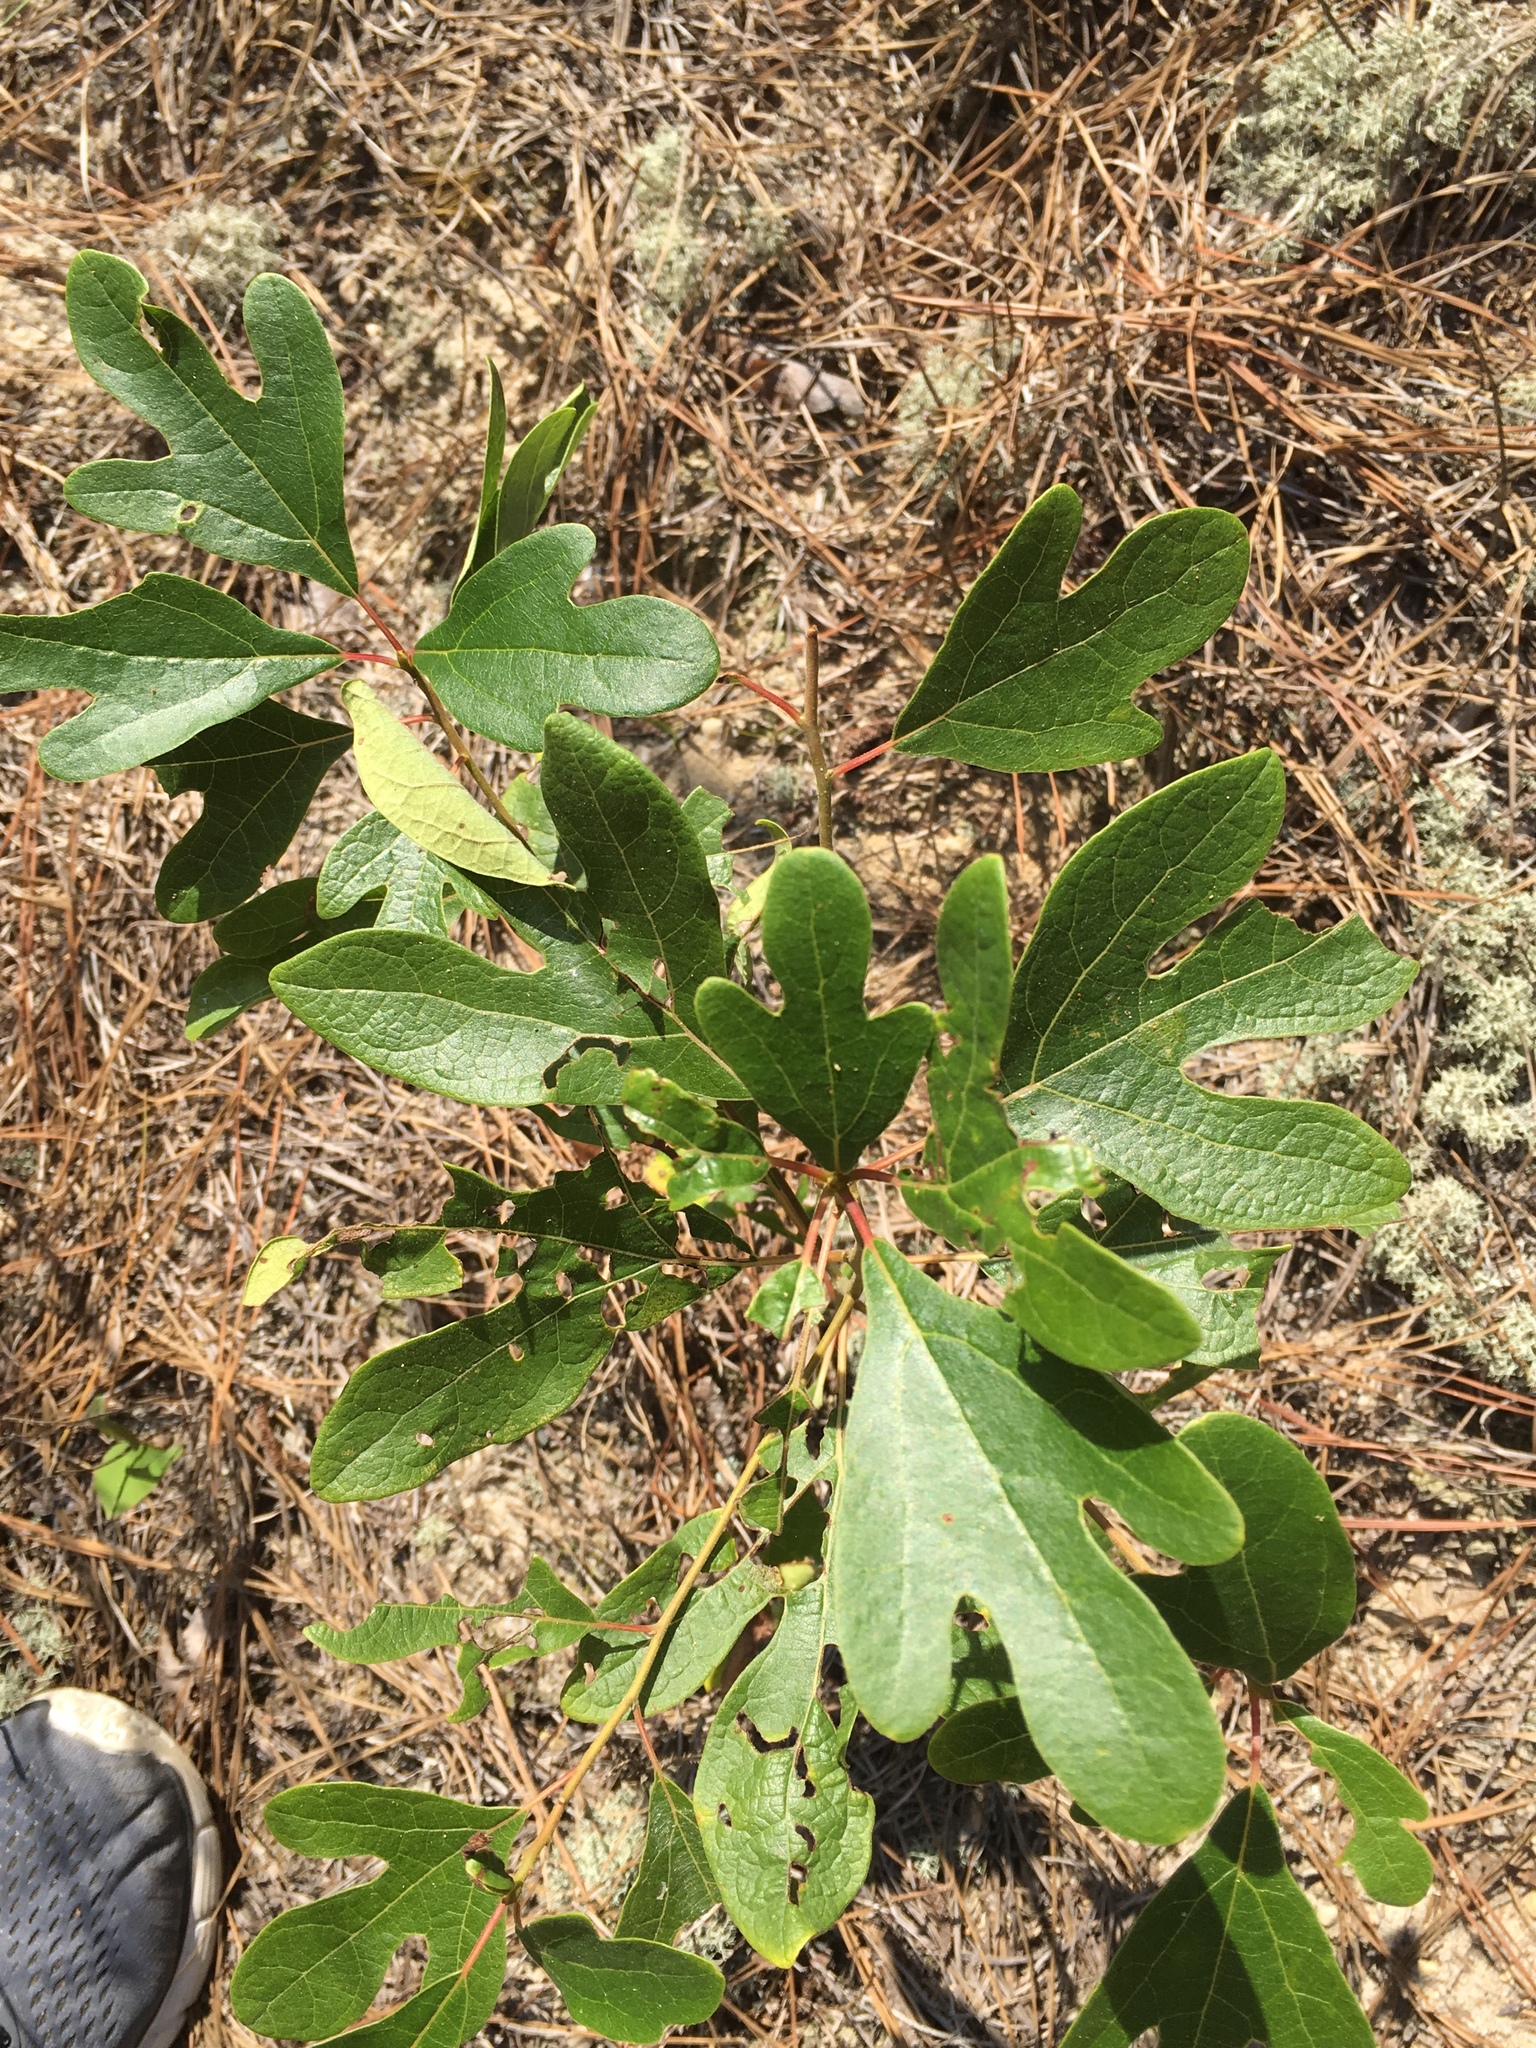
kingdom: Plantae
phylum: Tracheophyta
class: Magnoliopsida
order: Laurales
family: Lauraceae
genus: Sassafras
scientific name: Sassafras albidum
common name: Sassafras
